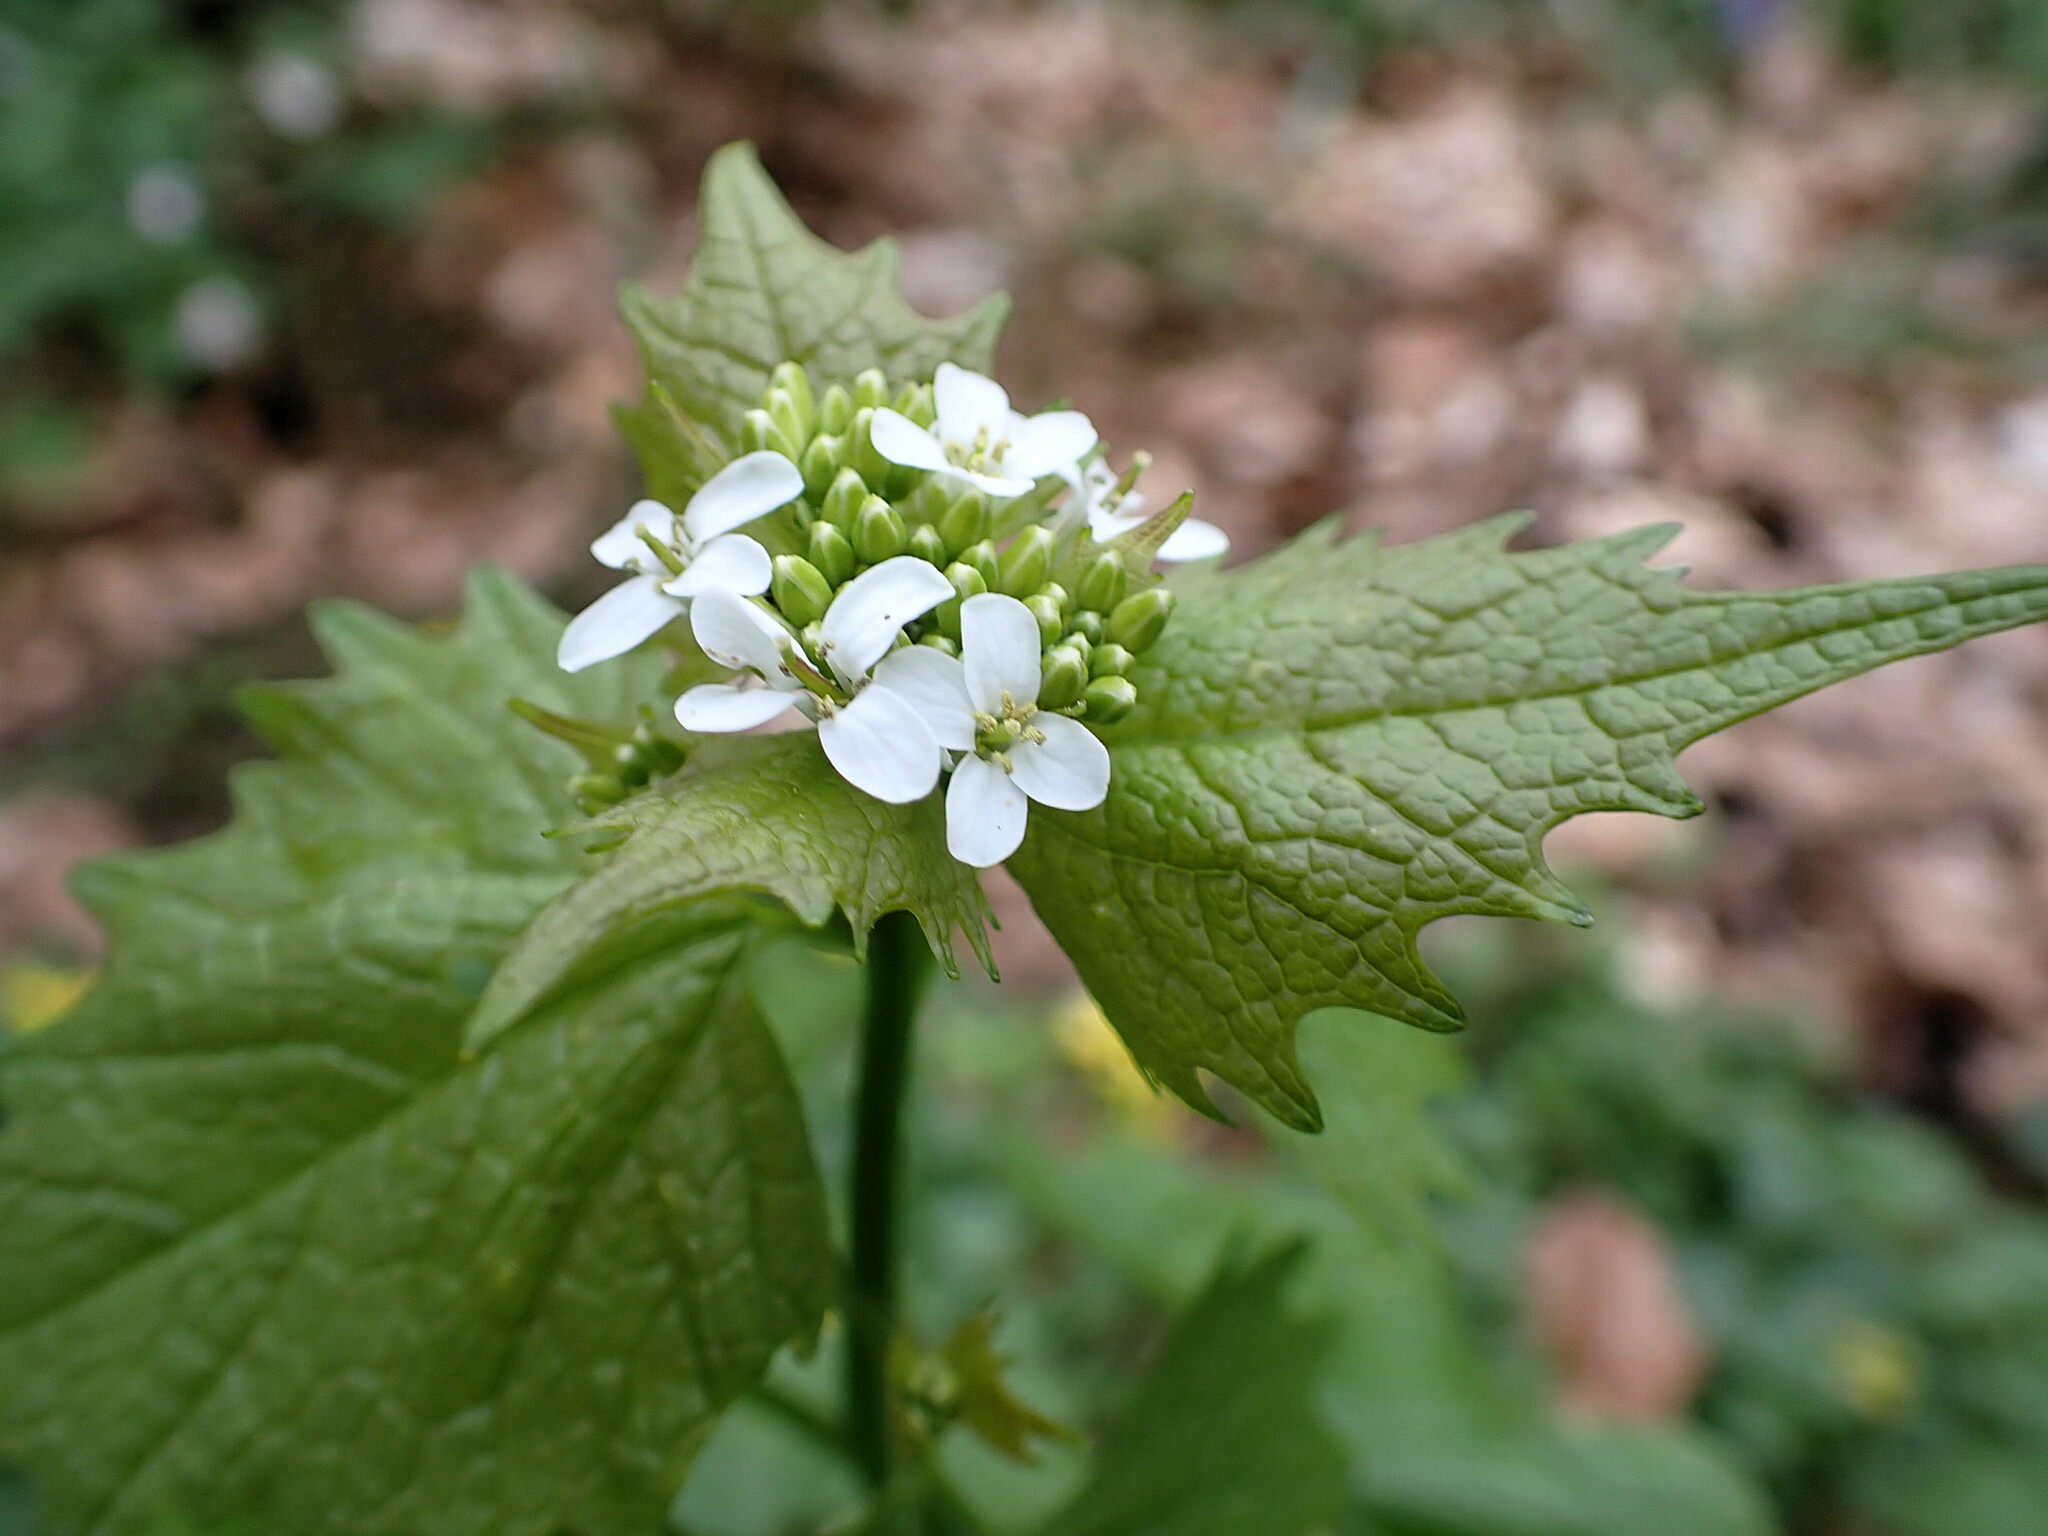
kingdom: Plantae
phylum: Tracheophyta
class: Magnoliopsida
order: Brassicales
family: Brassicaceae
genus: Alliaria
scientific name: Alliaria petiolata
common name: Garlic mustard
